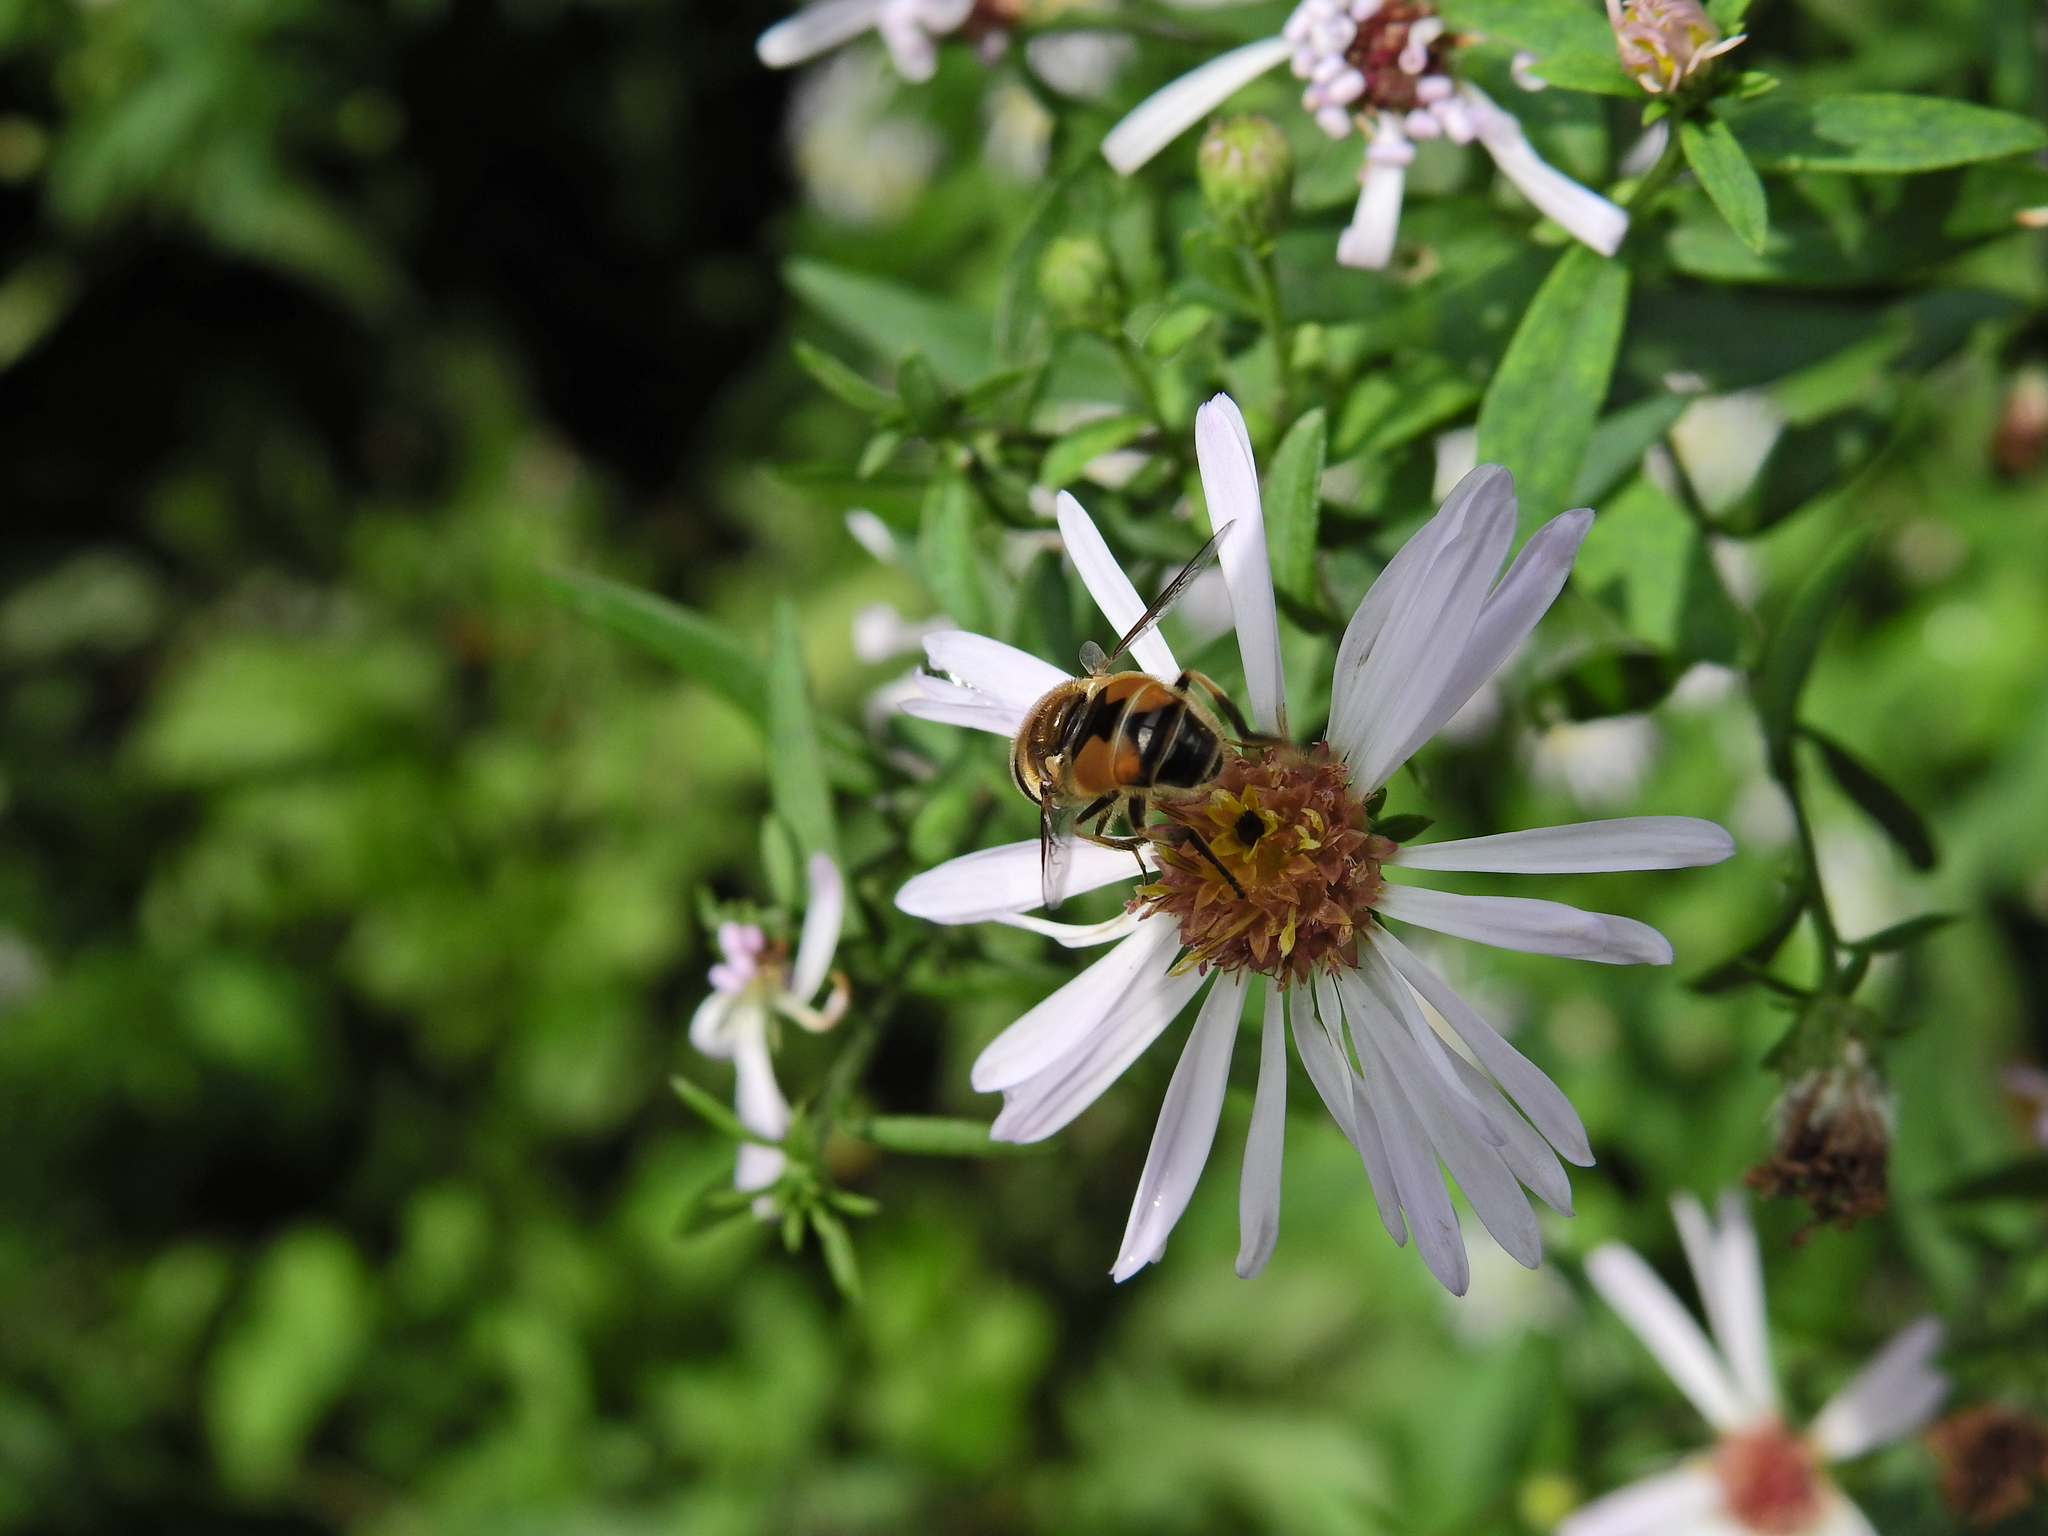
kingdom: Animalia
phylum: Arthropoda
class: Insecta
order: Diptera
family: Syrphidae
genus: Eristalis
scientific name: Eristalis arbustorum
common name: Hover fly
